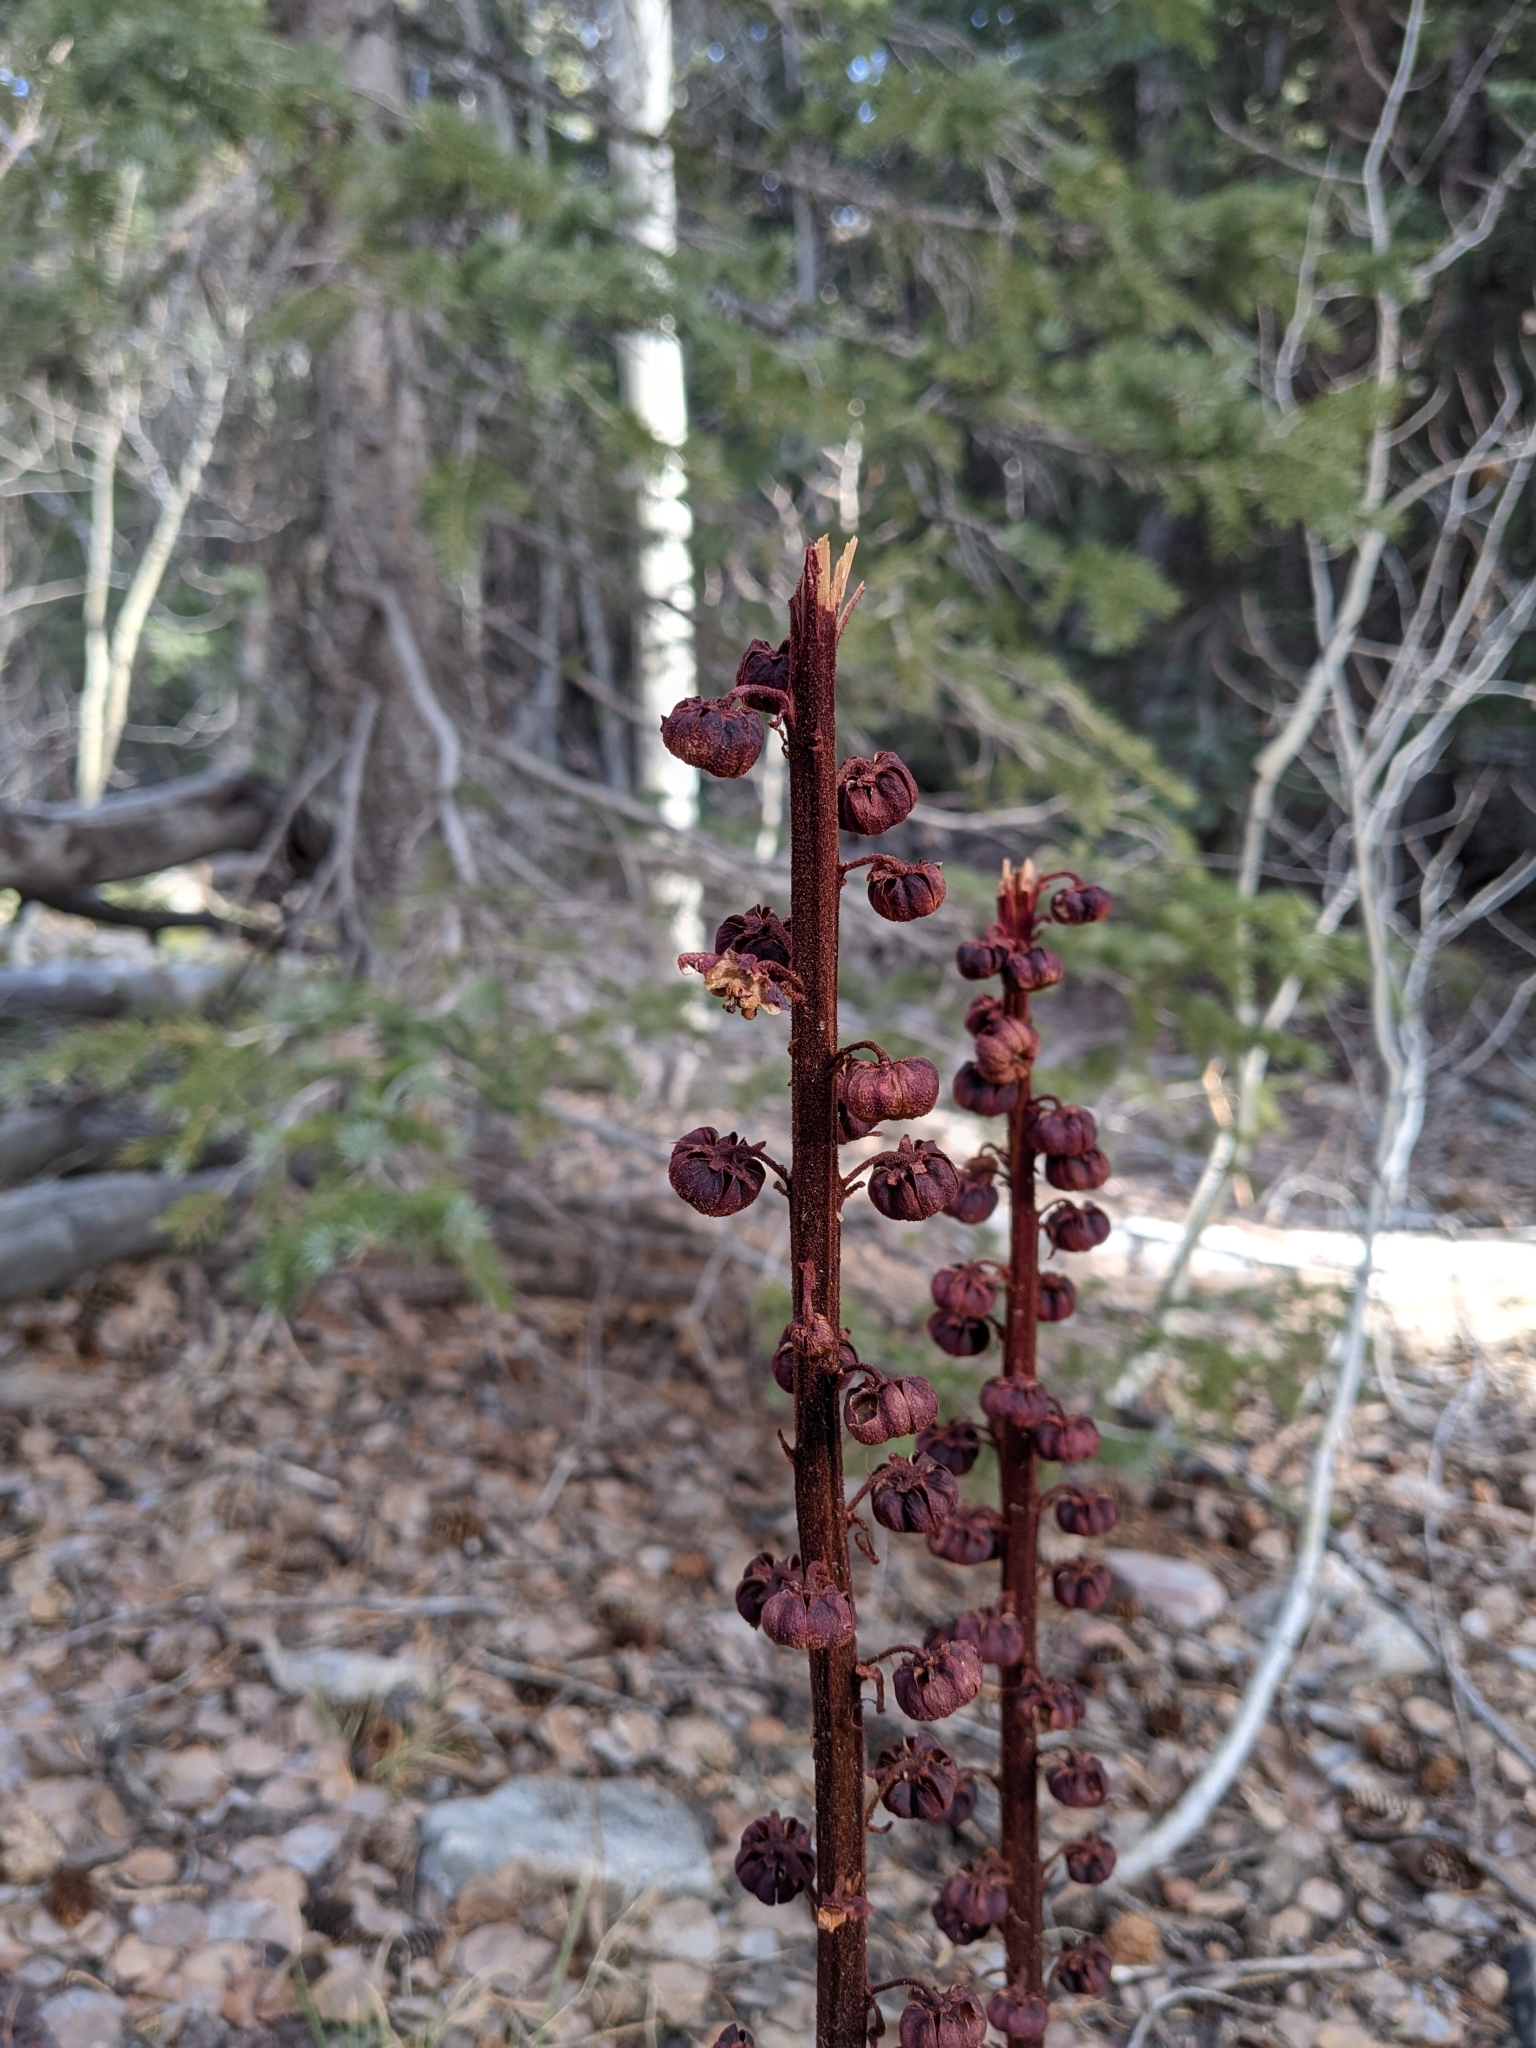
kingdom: Plantae
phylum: Tracheophyta
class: Magnoliopsida
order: Ericales
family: Ericaceae
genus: Pterospora
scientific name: Pterospora andromedea
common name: Giant bird's-nest
